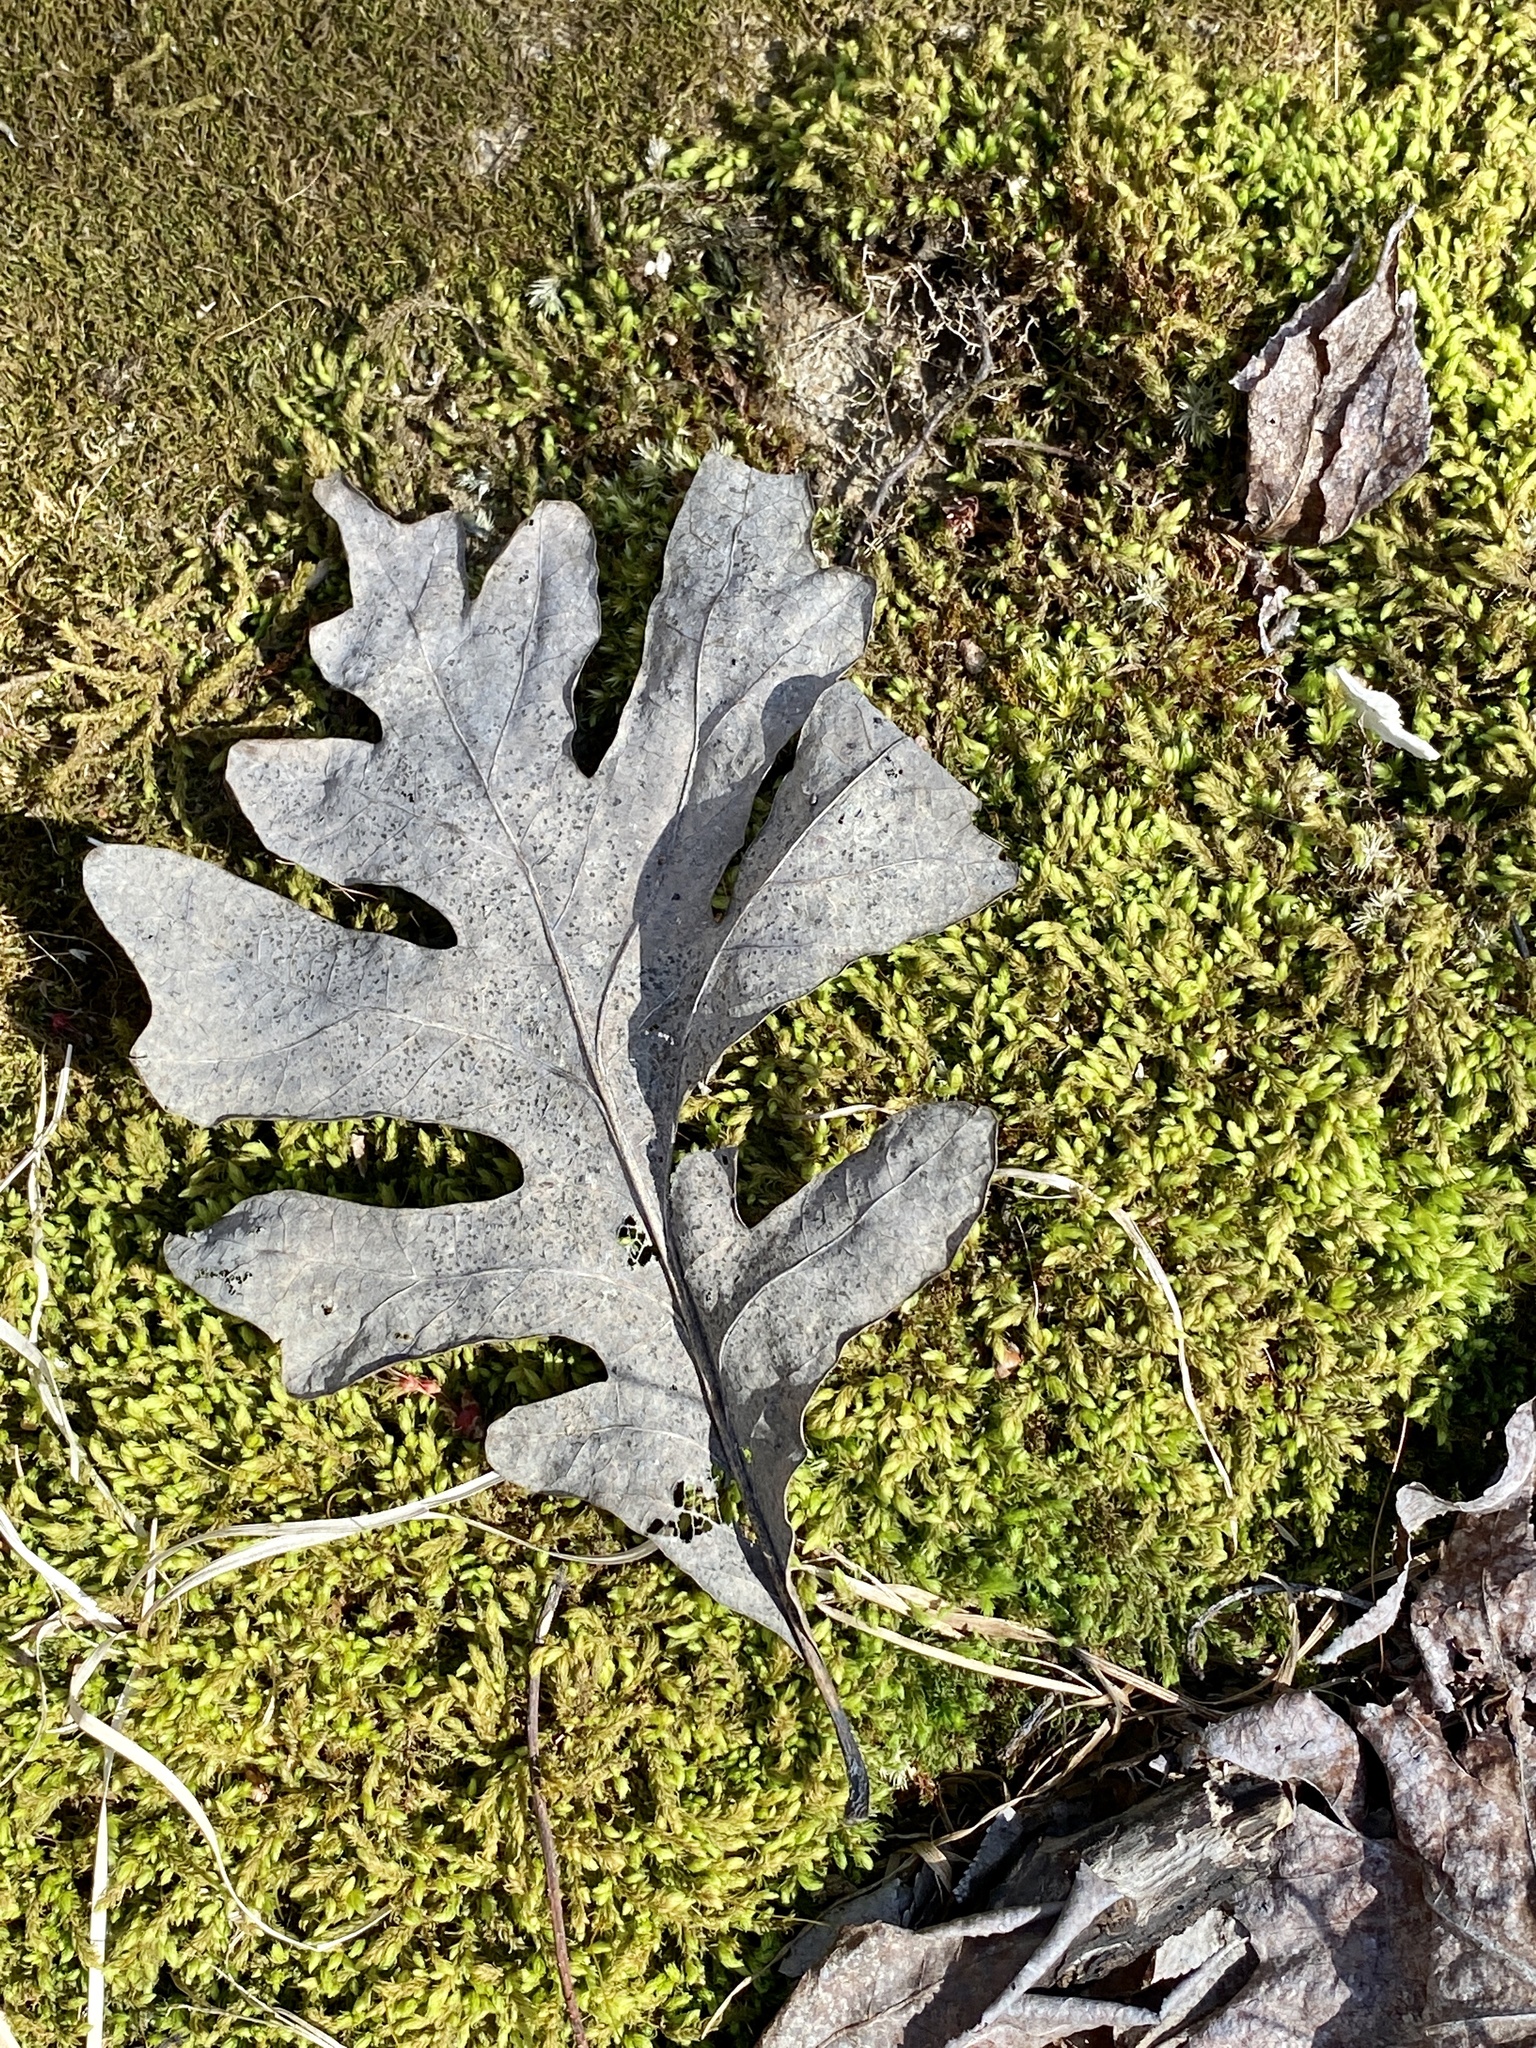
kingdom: Plantae
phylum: Tracheophyta
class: Magnoliopsida
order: Fagales
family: Fagaceae
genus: Quercus
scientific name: Quercus alba
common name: White oak
